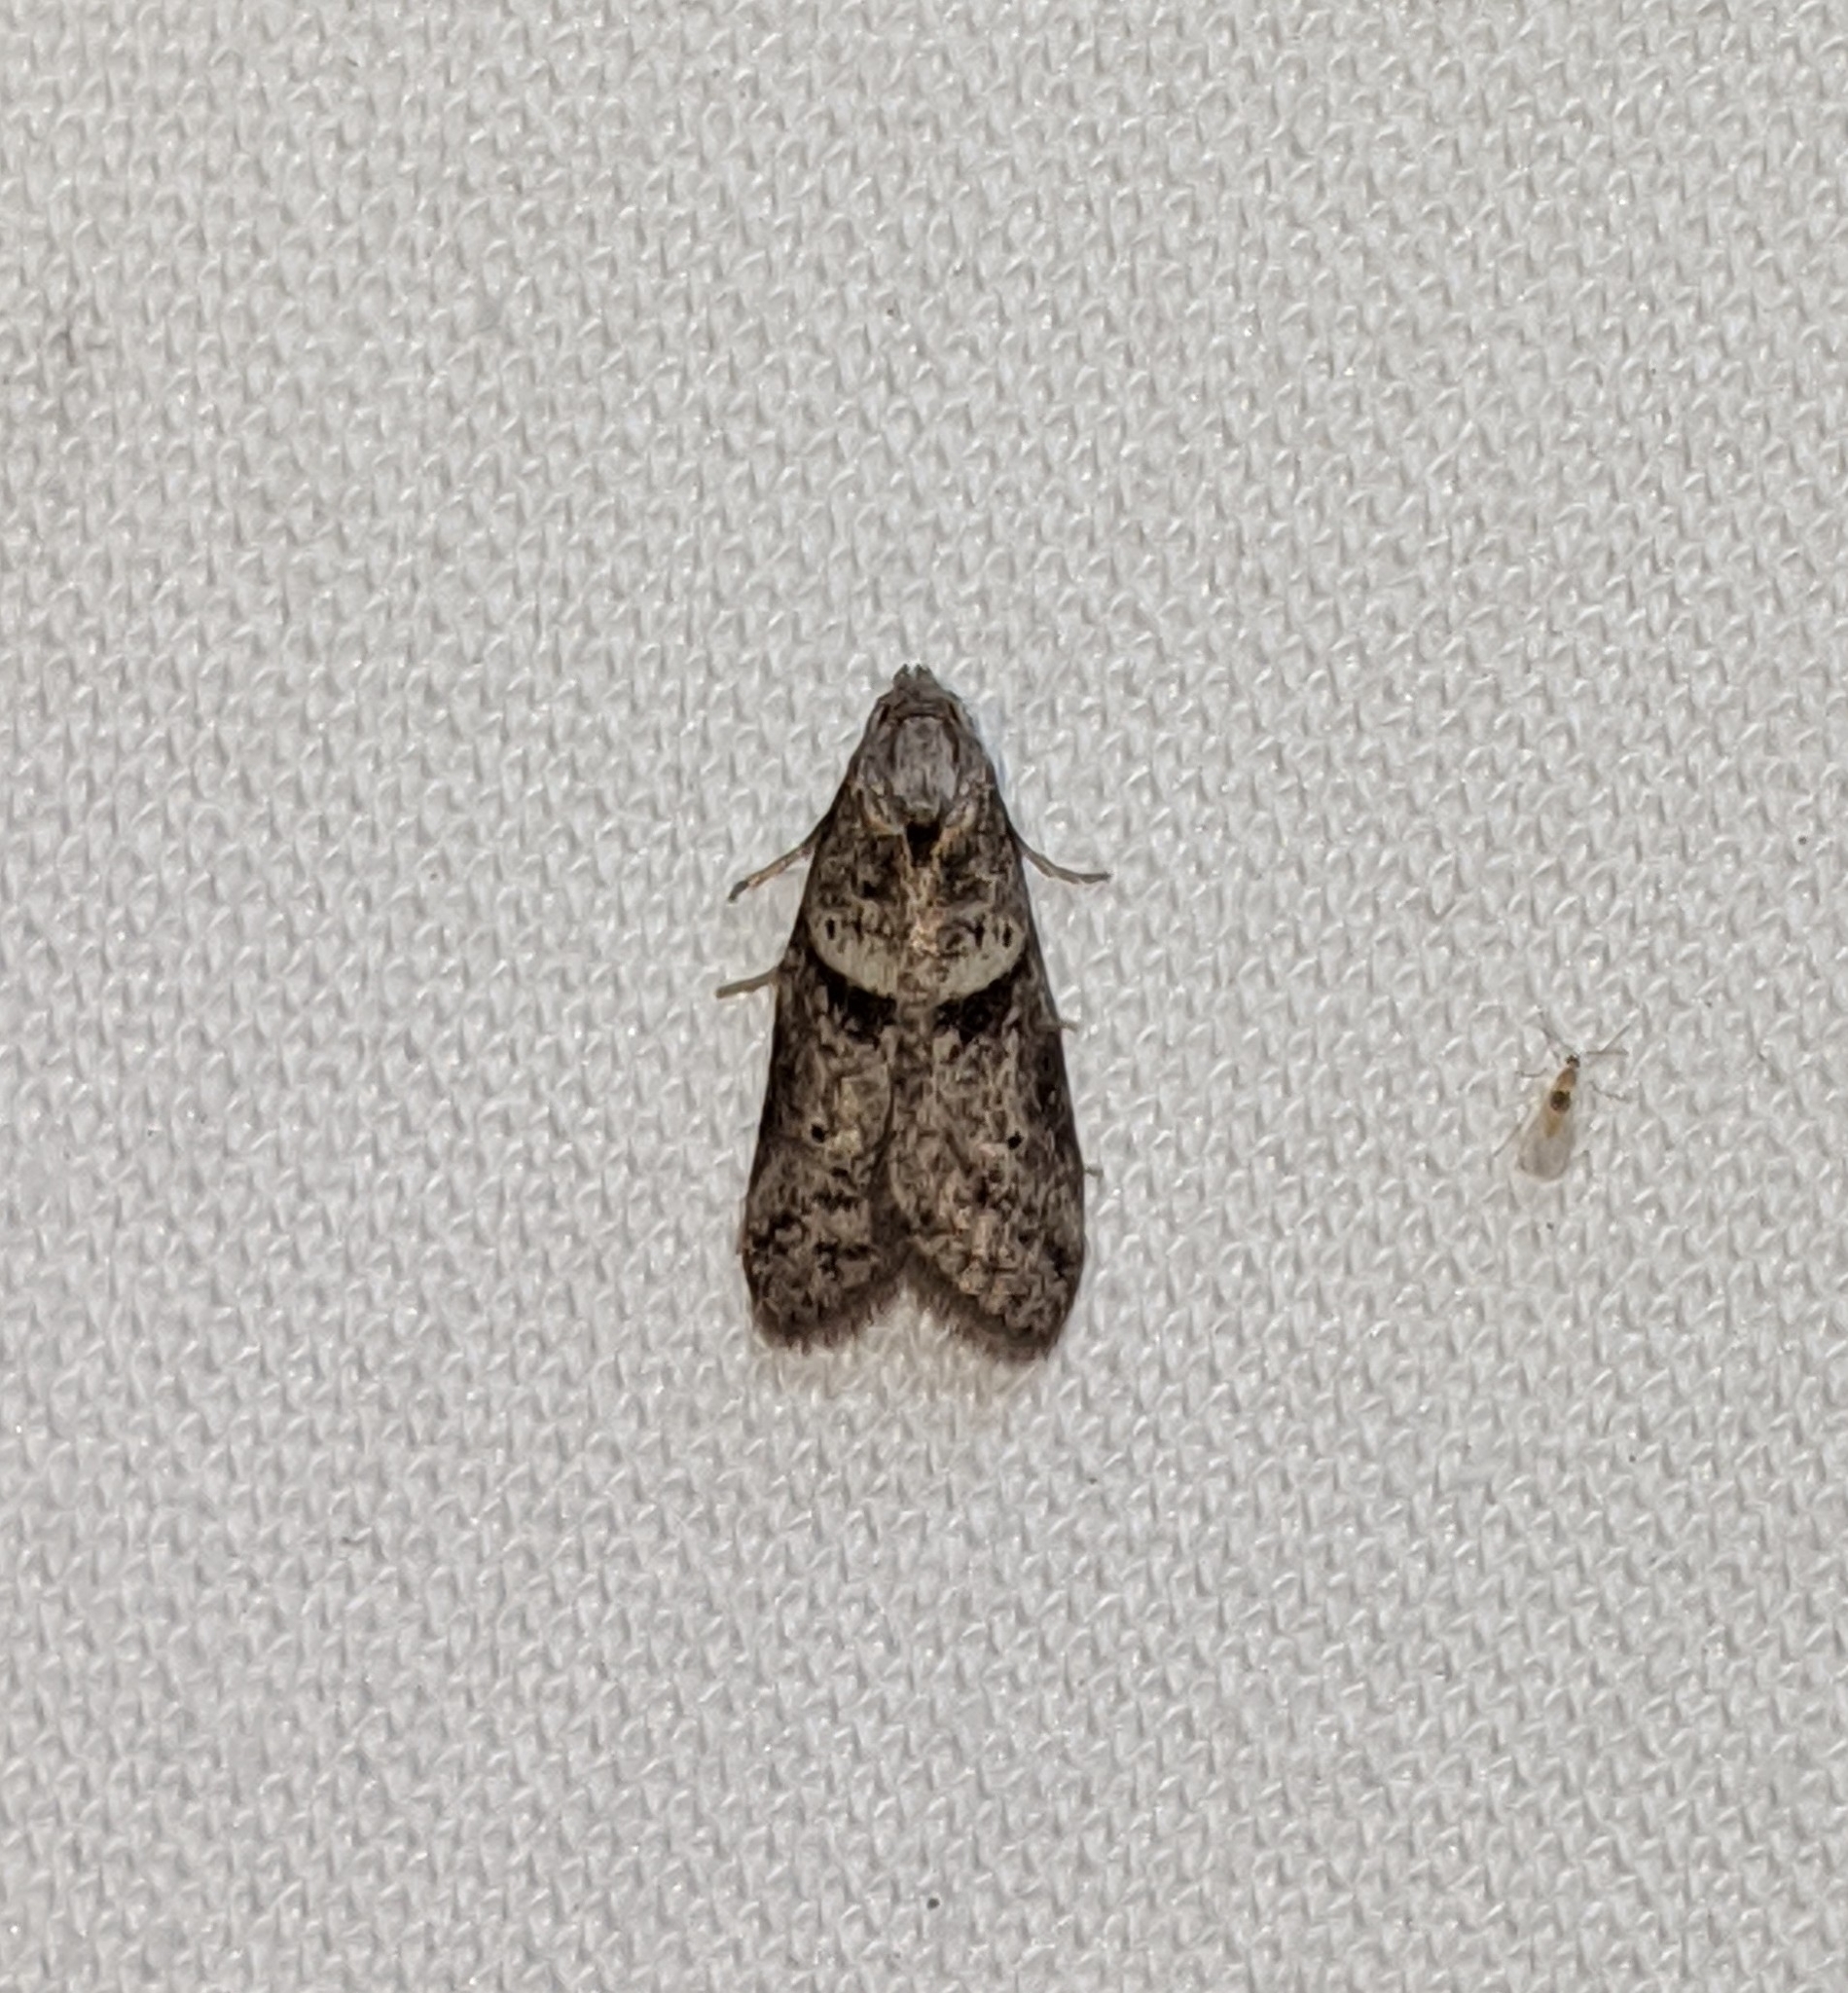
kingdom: Animalia
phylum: Arthropoda
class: Insecta
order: Lepidoptera
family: Copromorphidae
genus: Lotisma
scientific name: Lotisma trigonana
